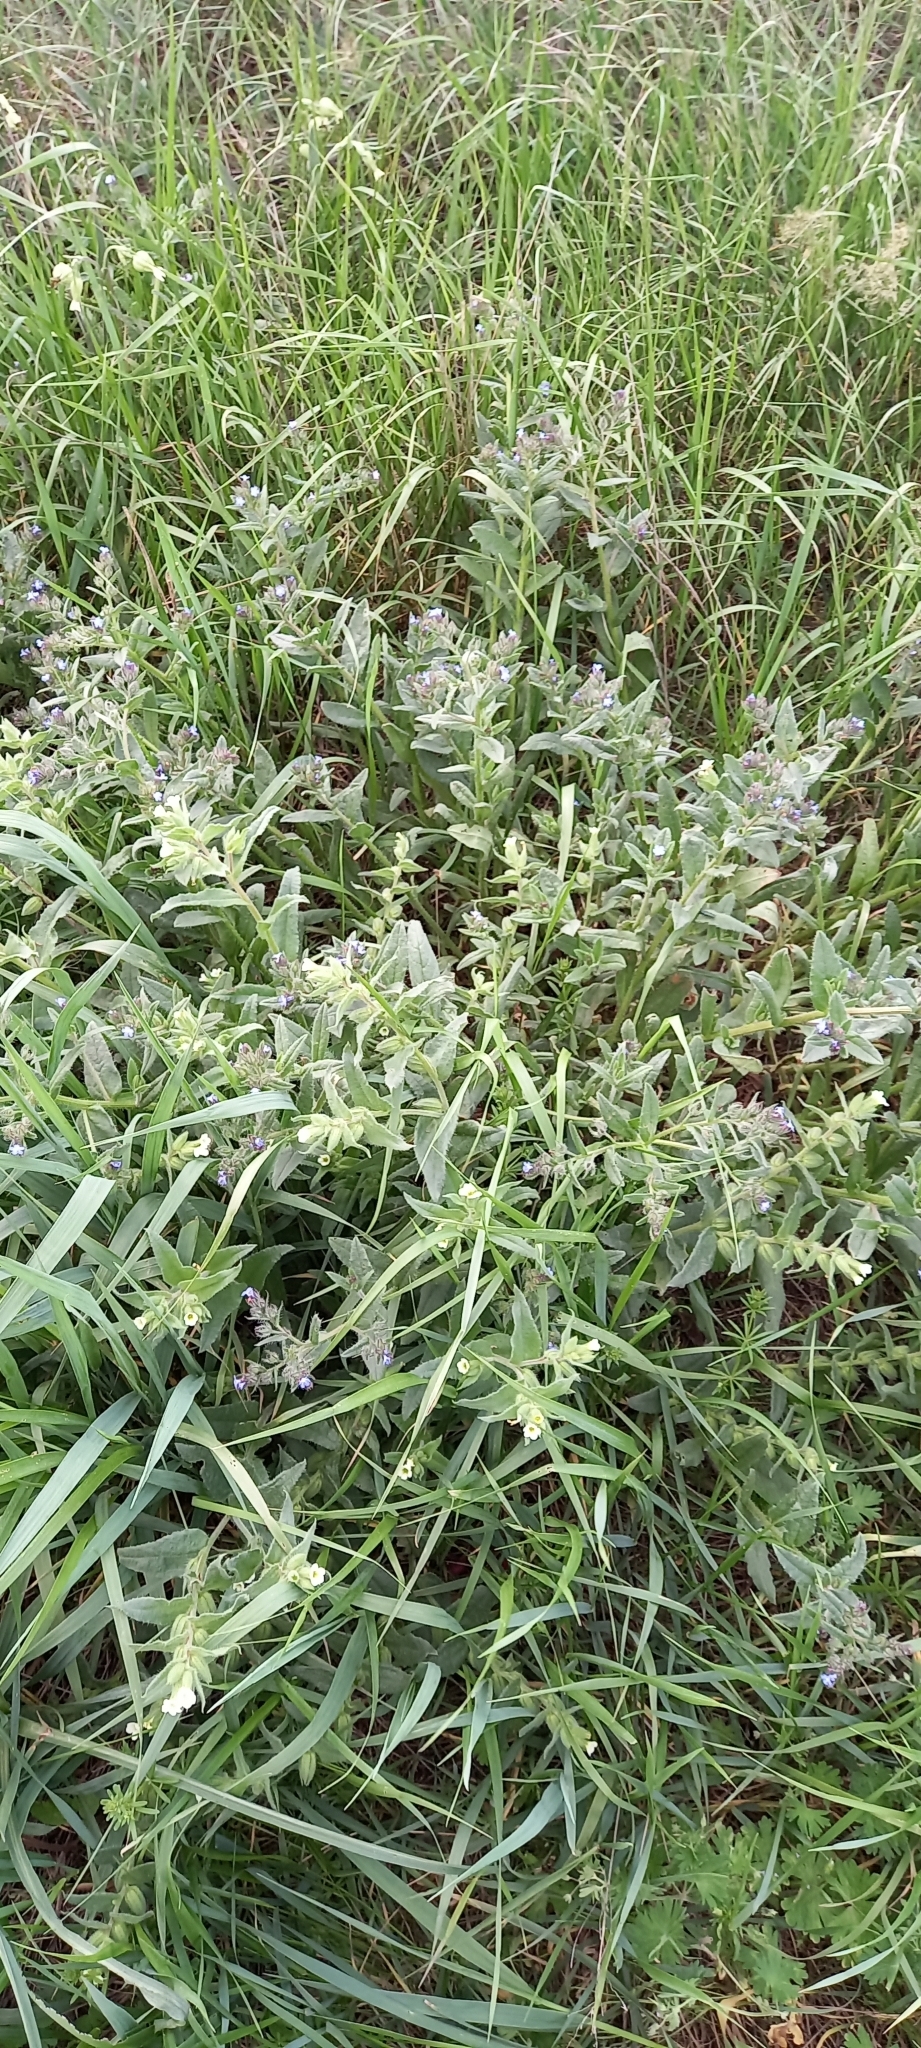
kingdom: Plantae
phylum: Tracheophyta
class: Magnoliopsida
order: Boraginales
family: Boraginaceae
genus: Lycopsis
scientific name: Lycopsis arvensis
